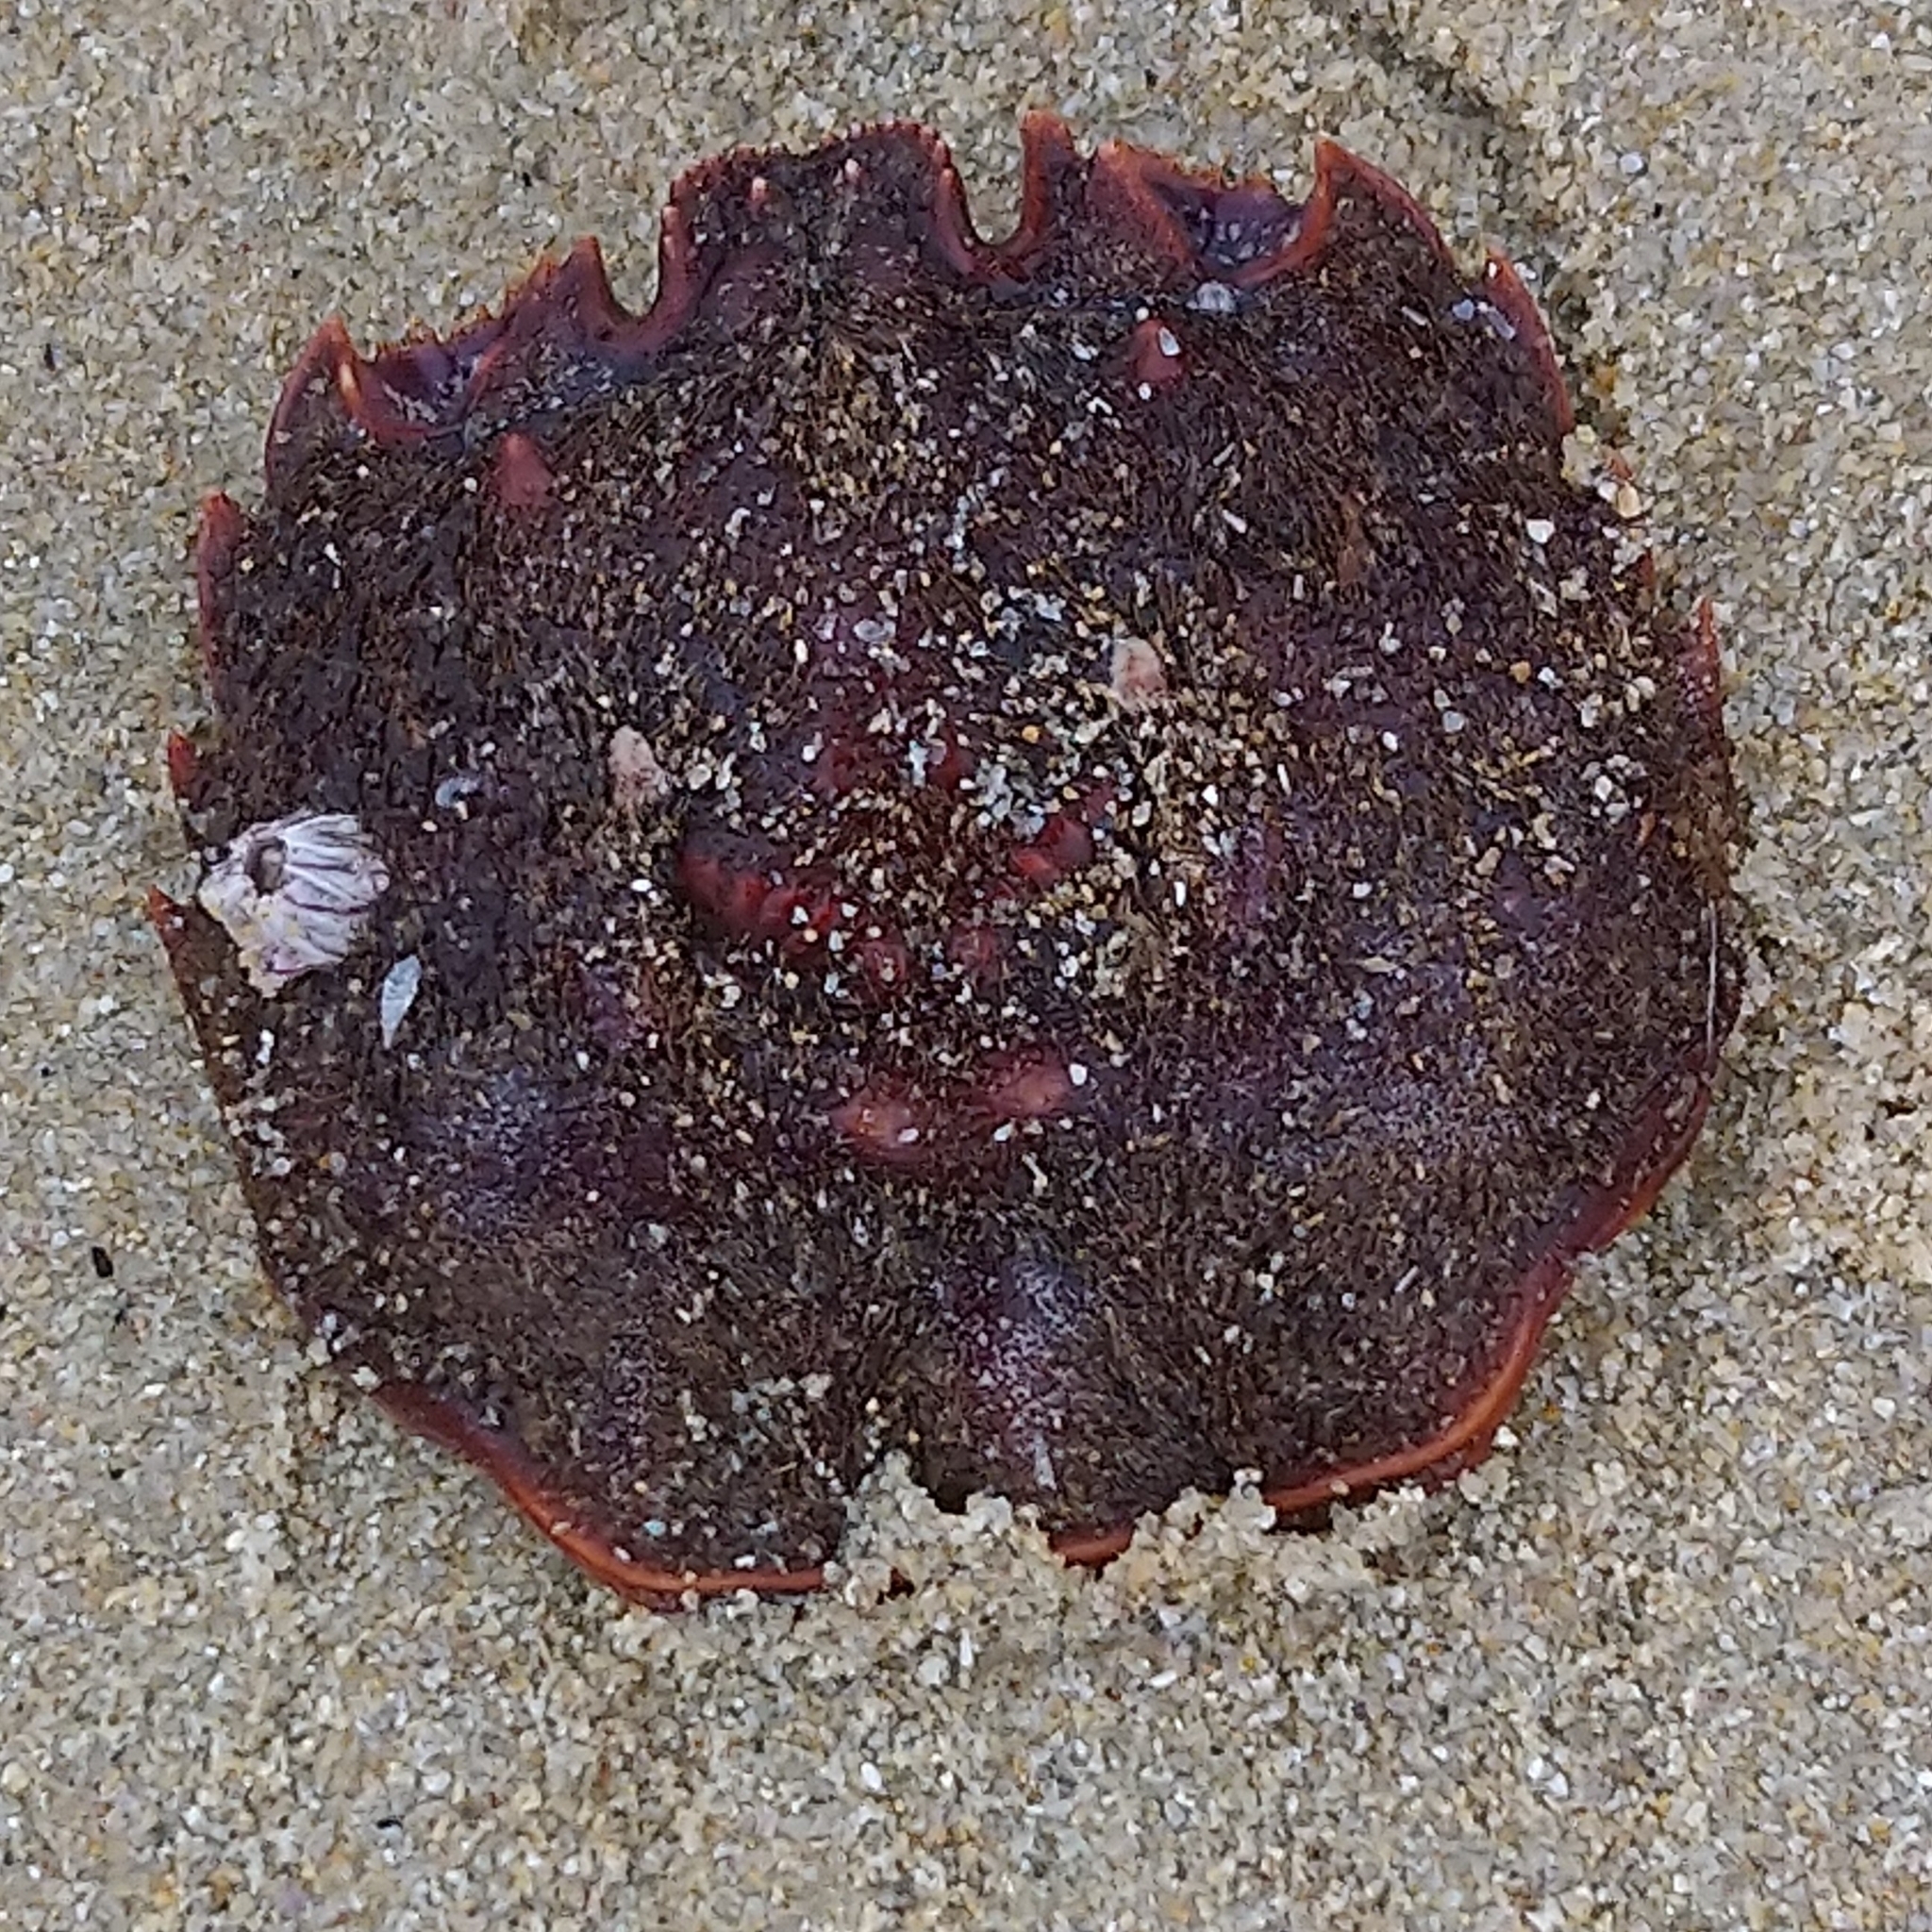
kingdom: Animalia
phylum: Arthropoda
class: Malacostraca
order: Decapoda
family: Plagusiidae
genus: Guinusia
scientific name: Guinusia chabrus
